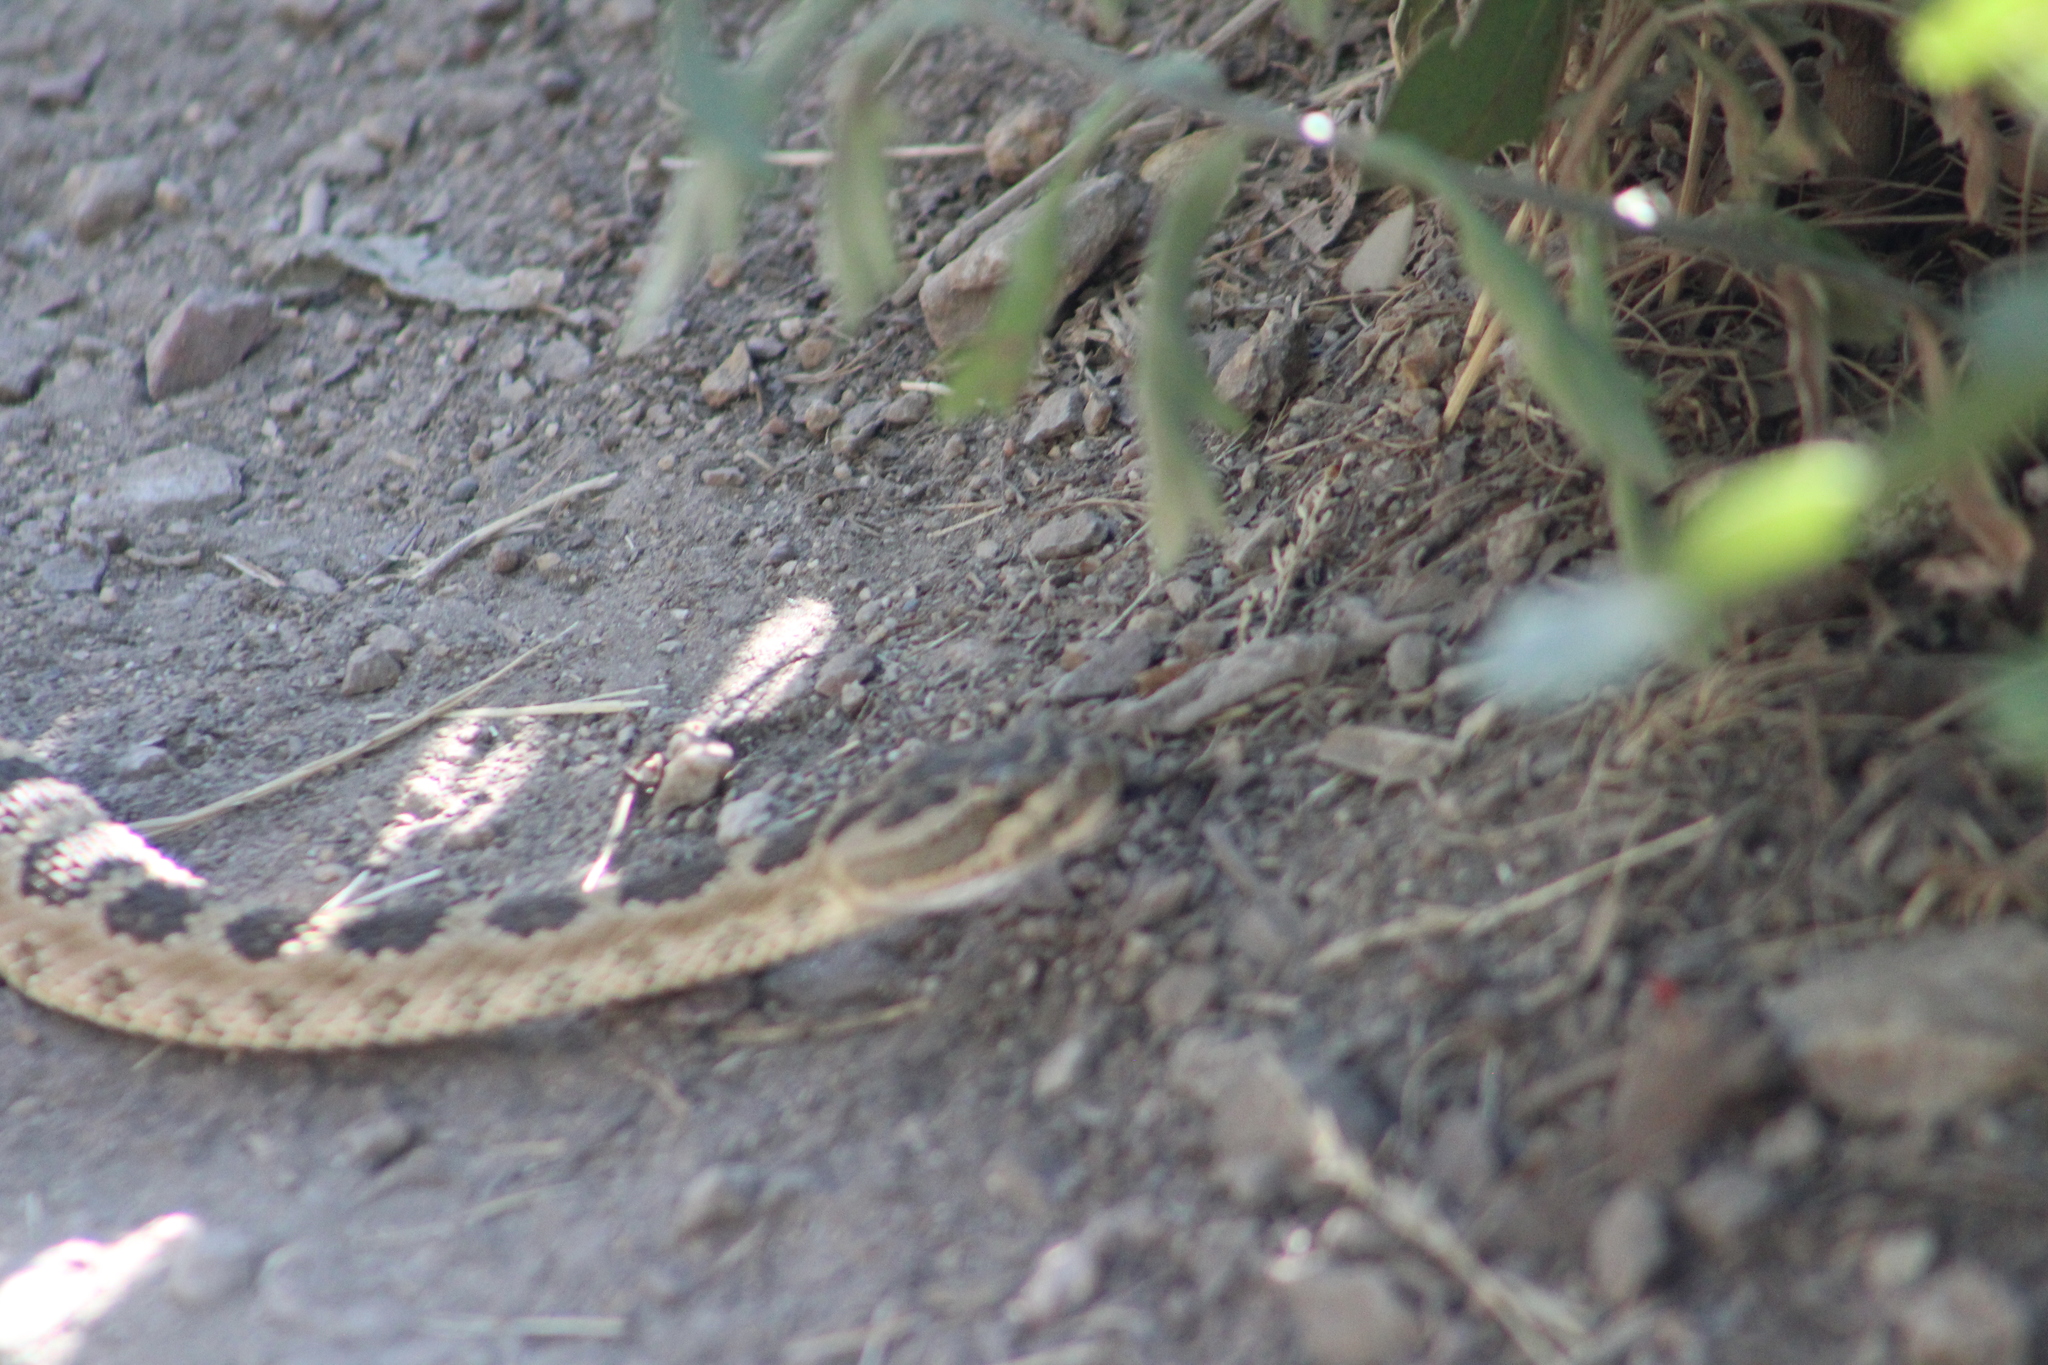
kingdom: Animalia
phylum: Chordata
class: Squamata
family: Viperidae
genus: Crotalus
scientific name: Crotalus oreganus
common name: Abyssus
